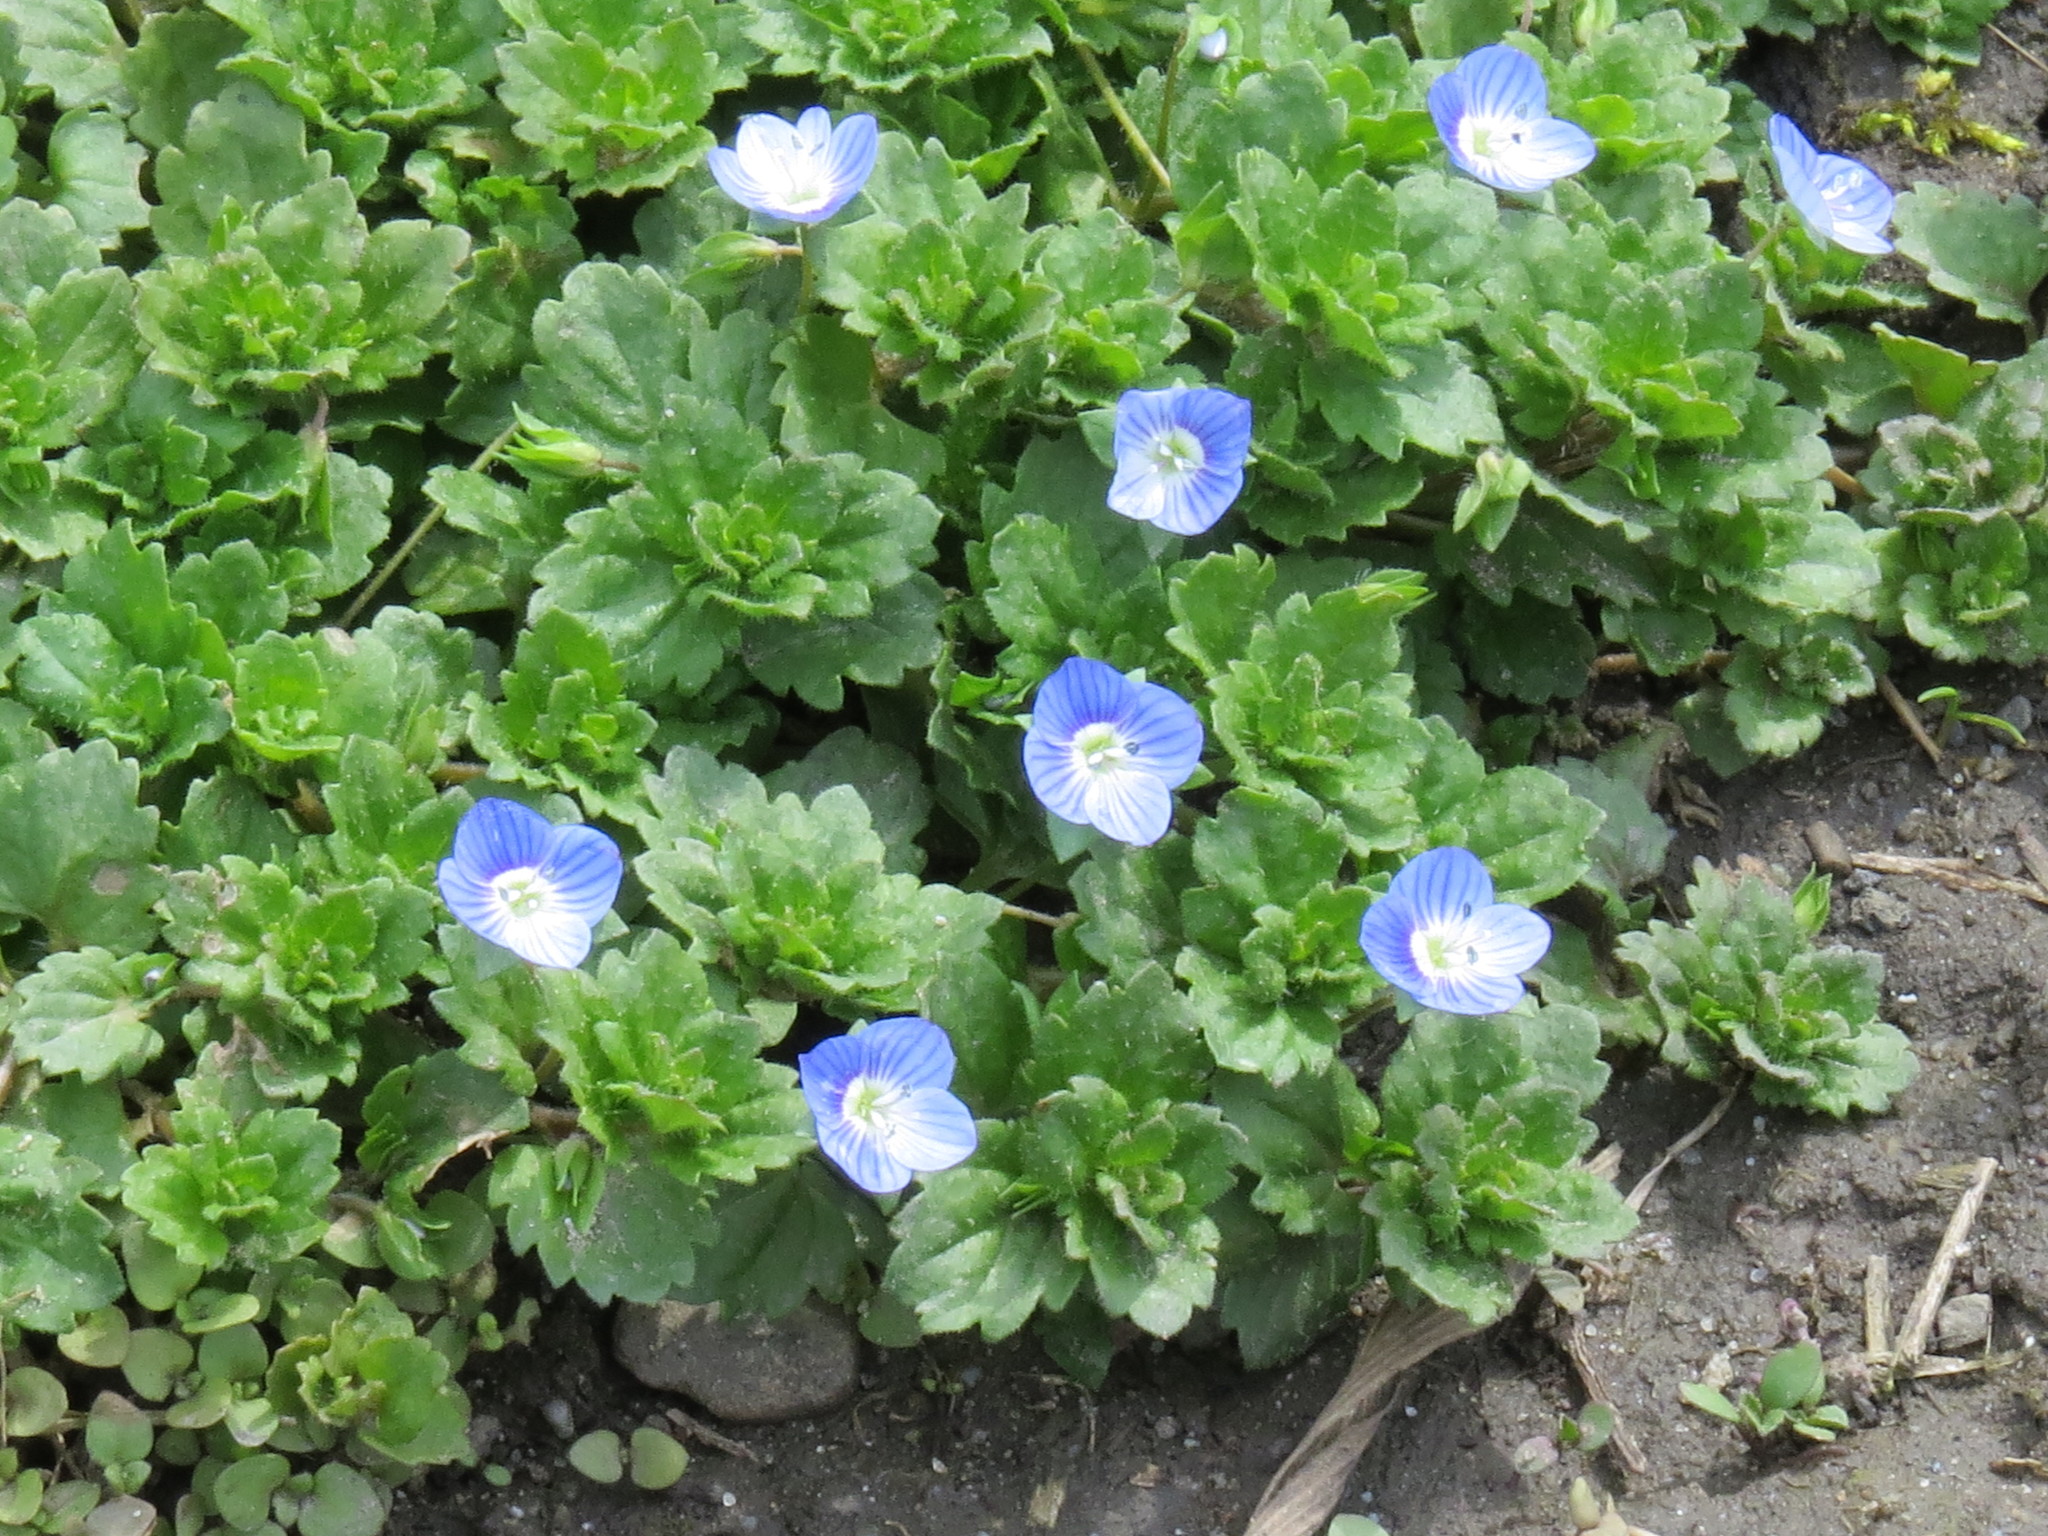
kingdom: Plantae
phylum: Tracheophyta
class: Magnoliopsida
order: Lamiales
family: Plantaginaceae
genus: Veronica
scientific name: Veronica persica
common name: Common field-speedwell
